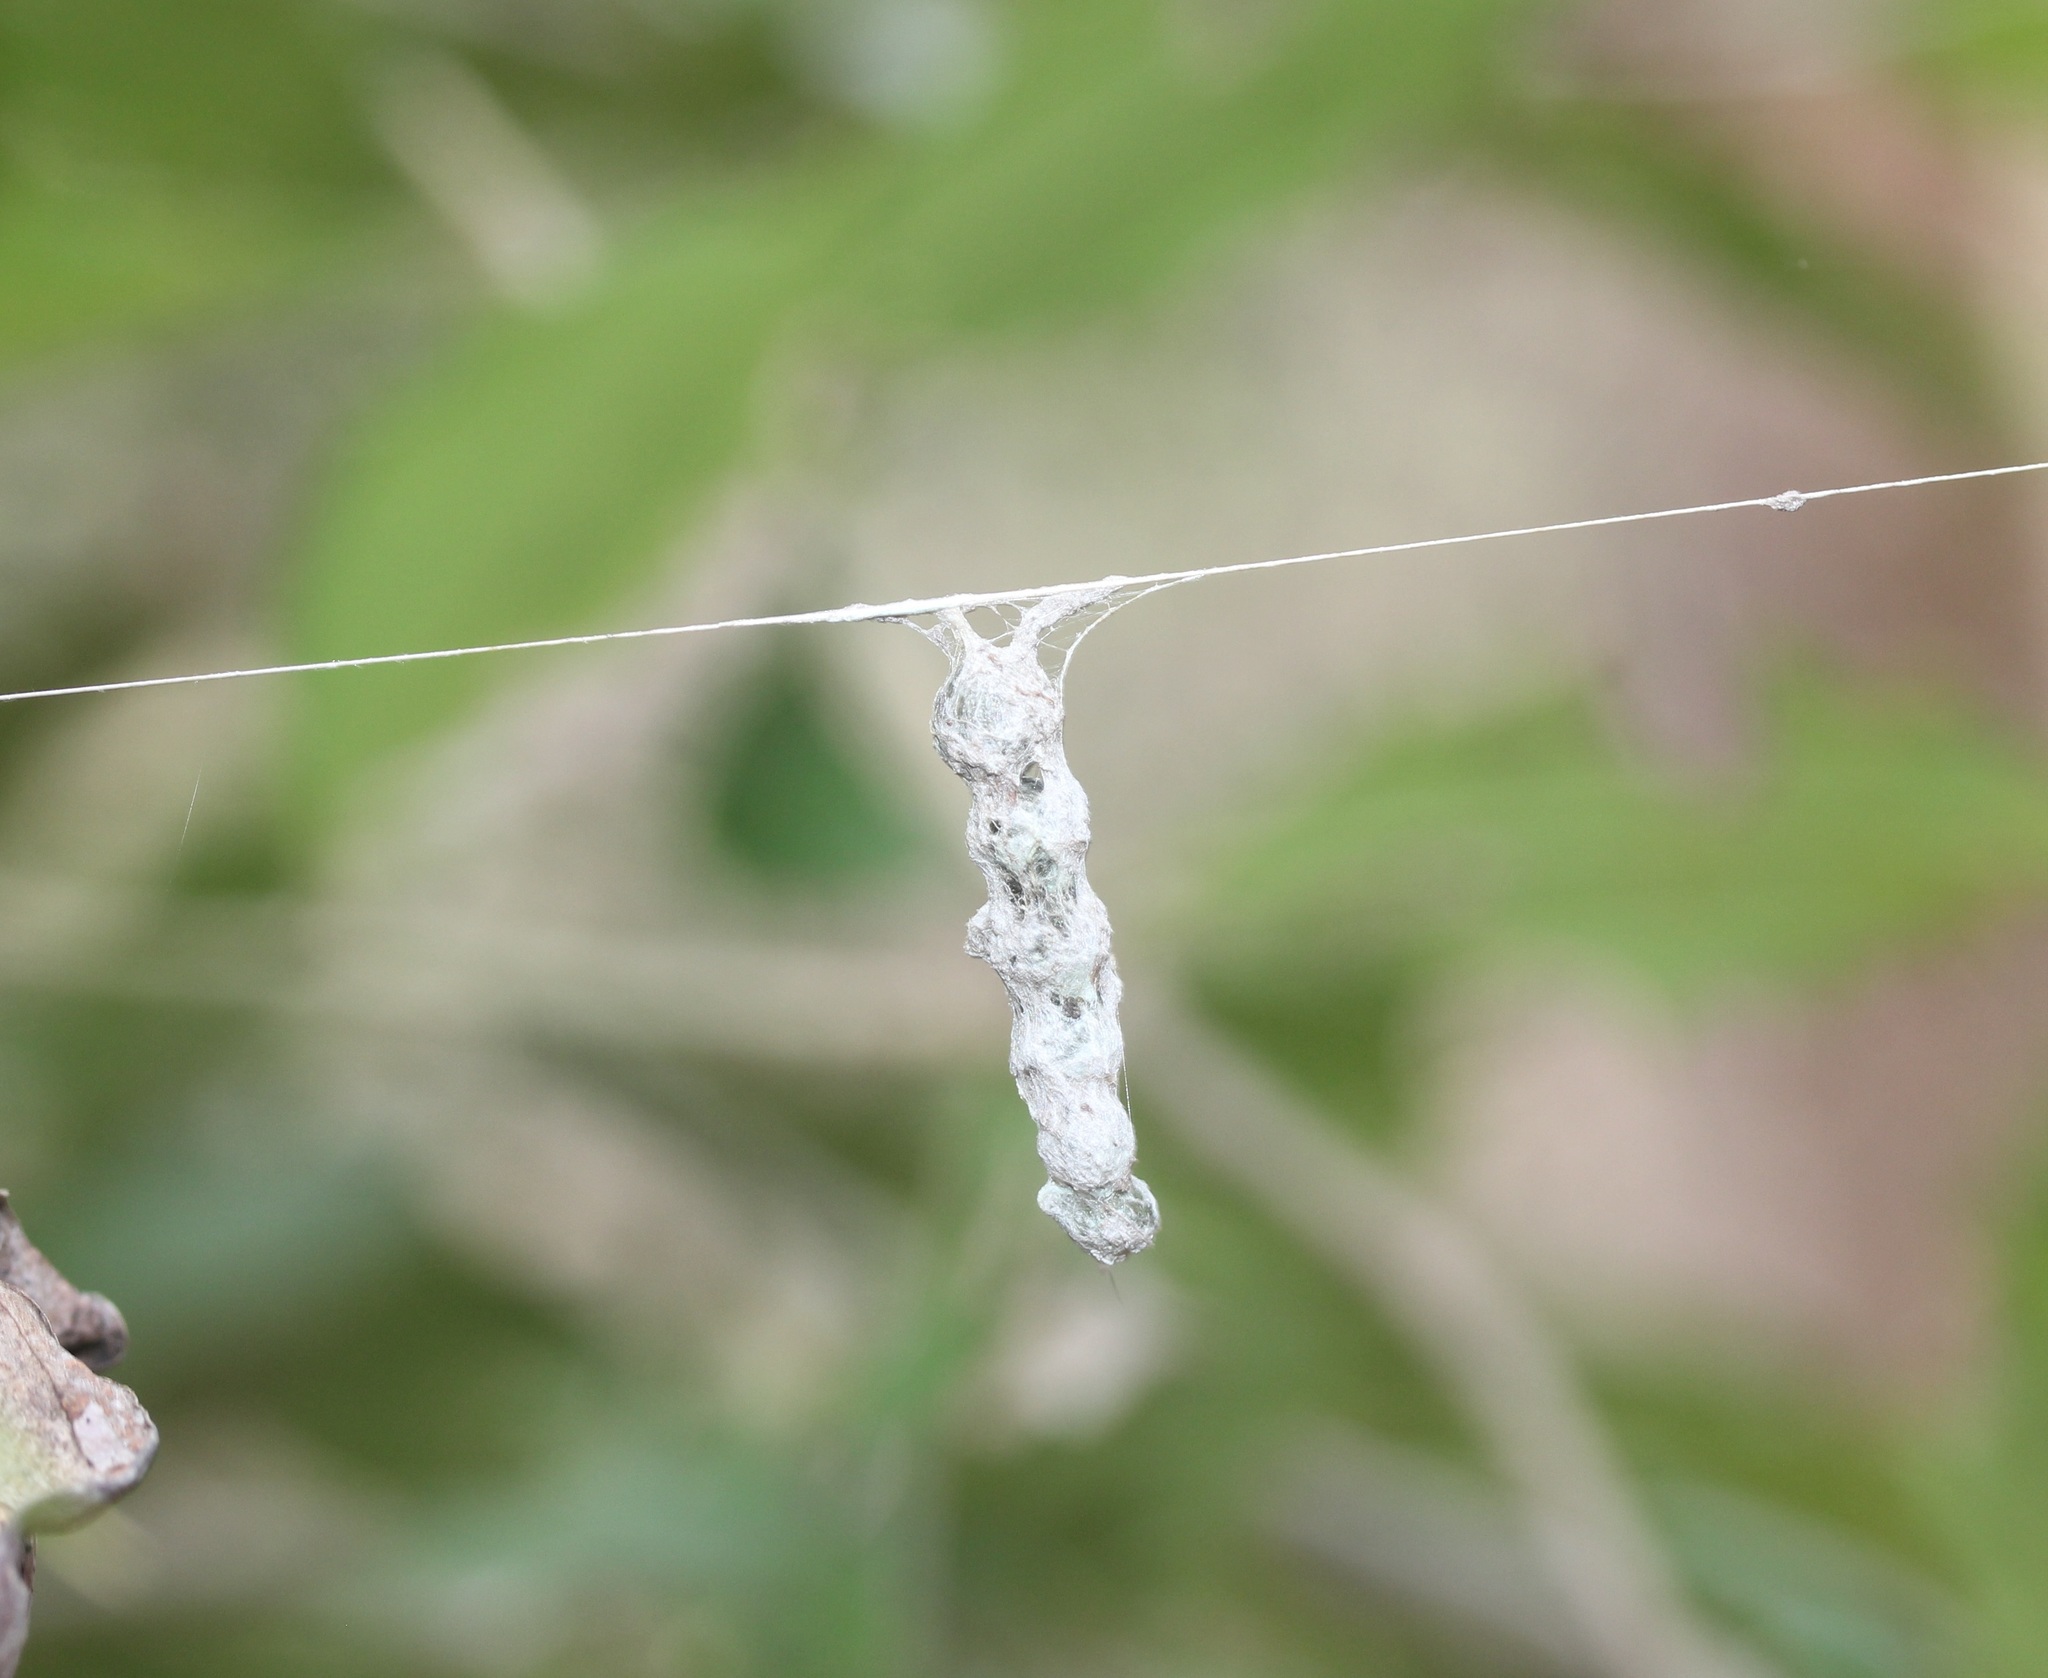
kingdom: Animalia
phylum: Arthropoda
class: Arachnida
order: Araneae
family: Araneidae
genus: Mecynogea
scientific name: Mecynogea lemniscata
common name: Orb weavers
